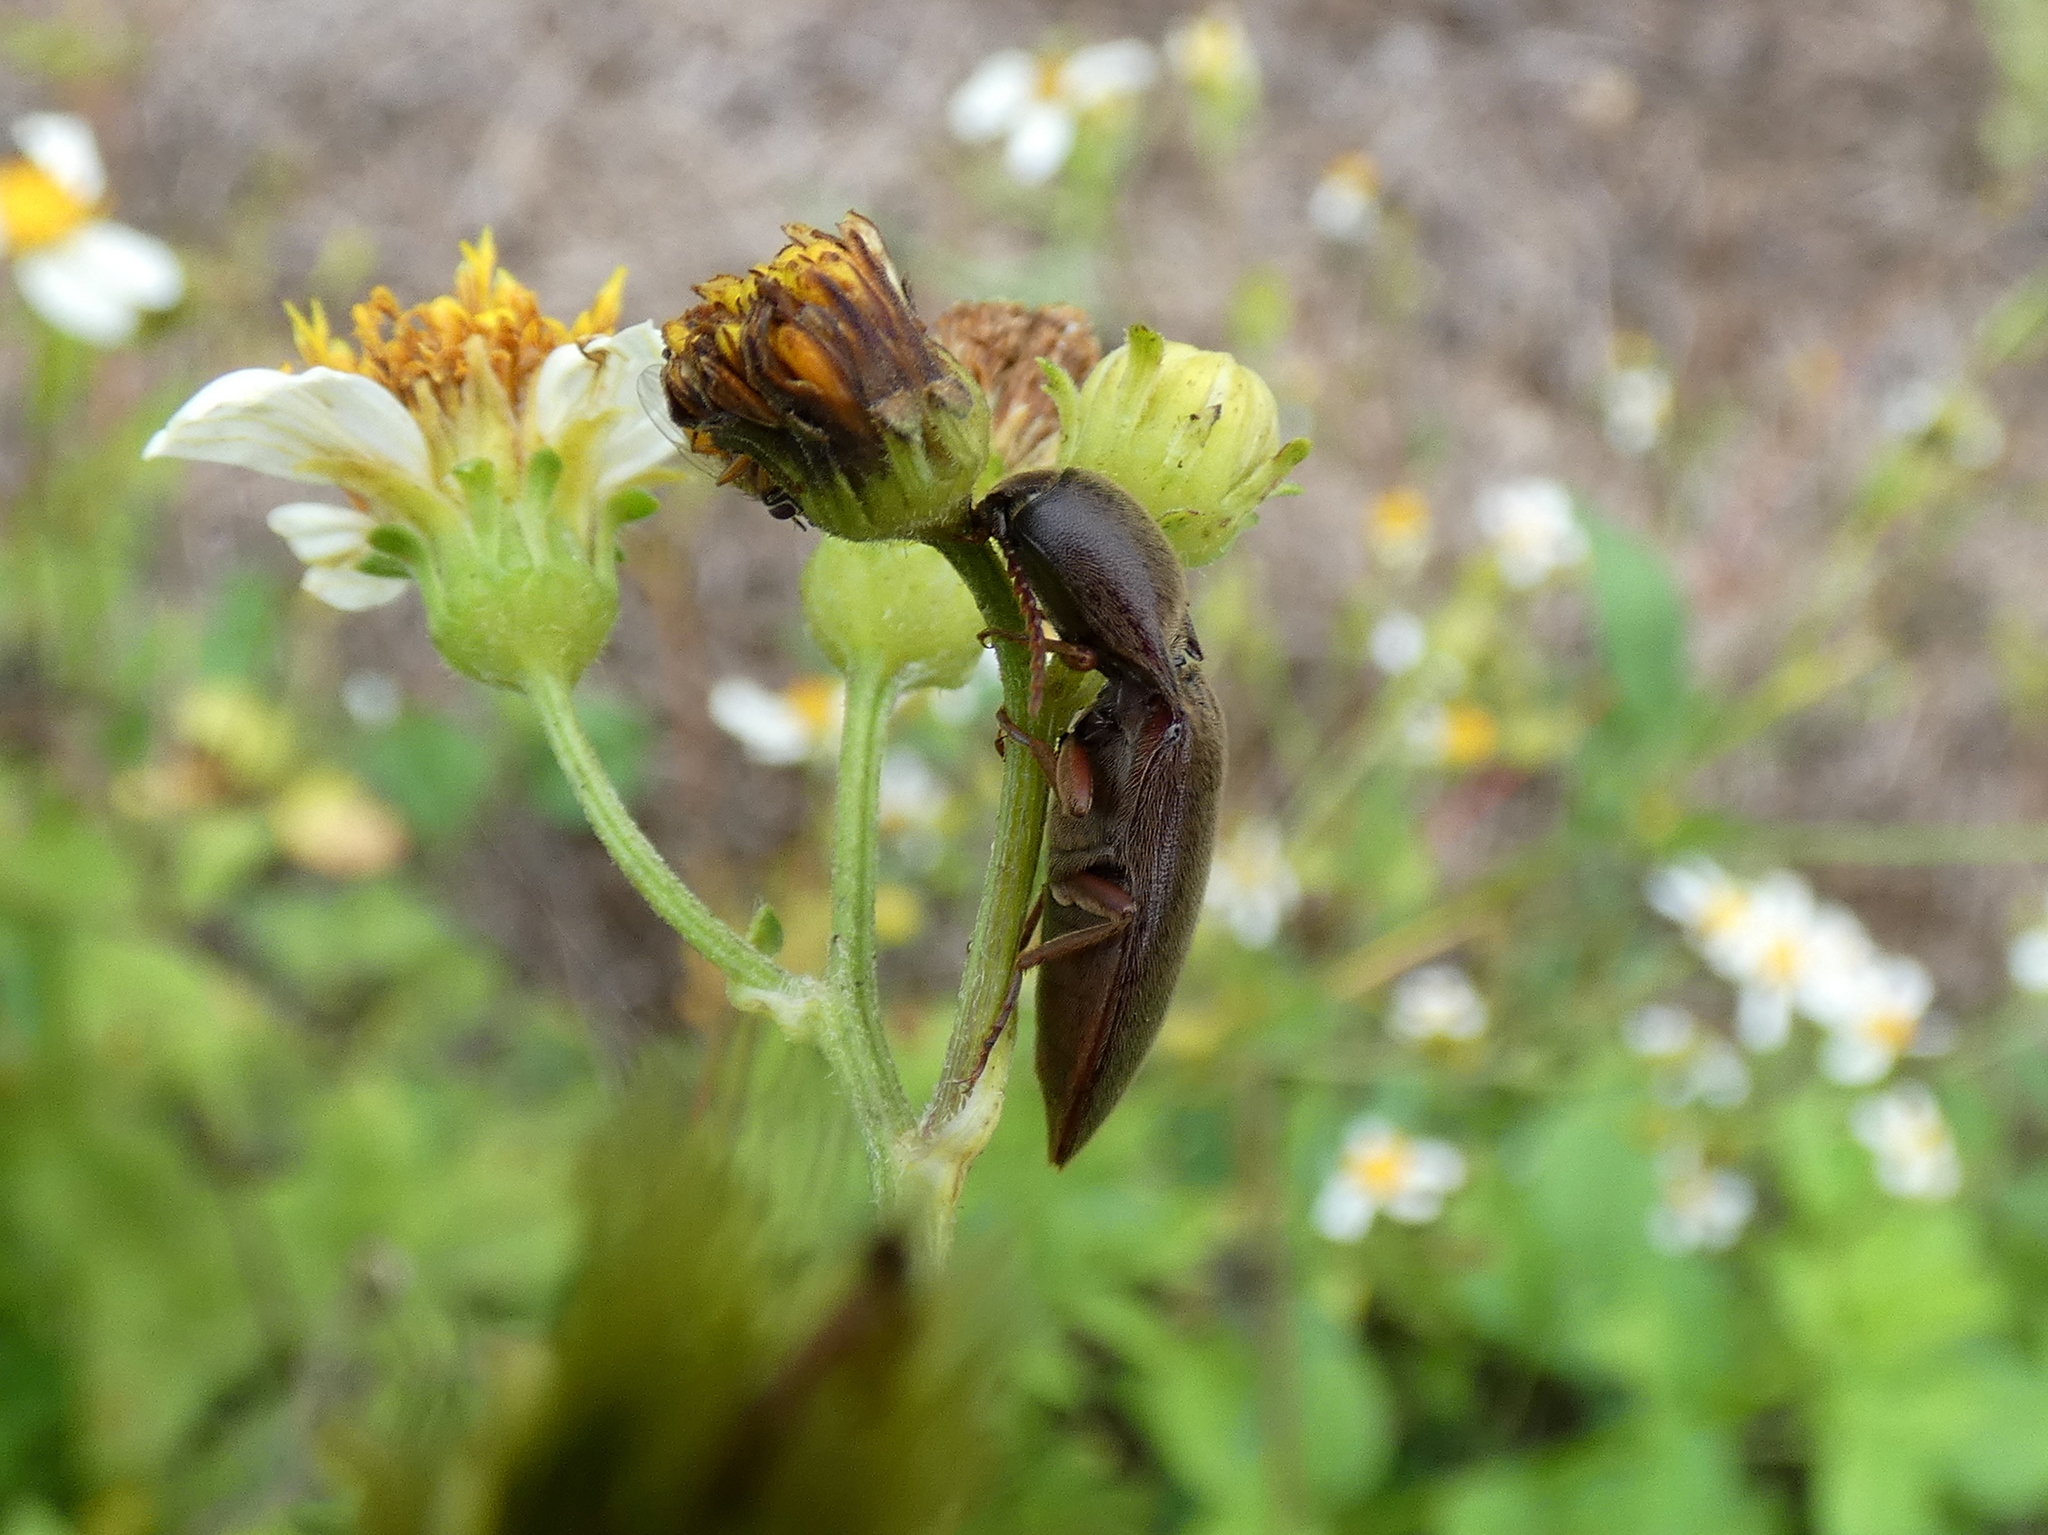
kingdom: Animalia
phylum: Arthropoda
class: Insecta
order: Coleoptera
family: Elateridae
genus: Diplostethus
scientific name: Diplostethus
